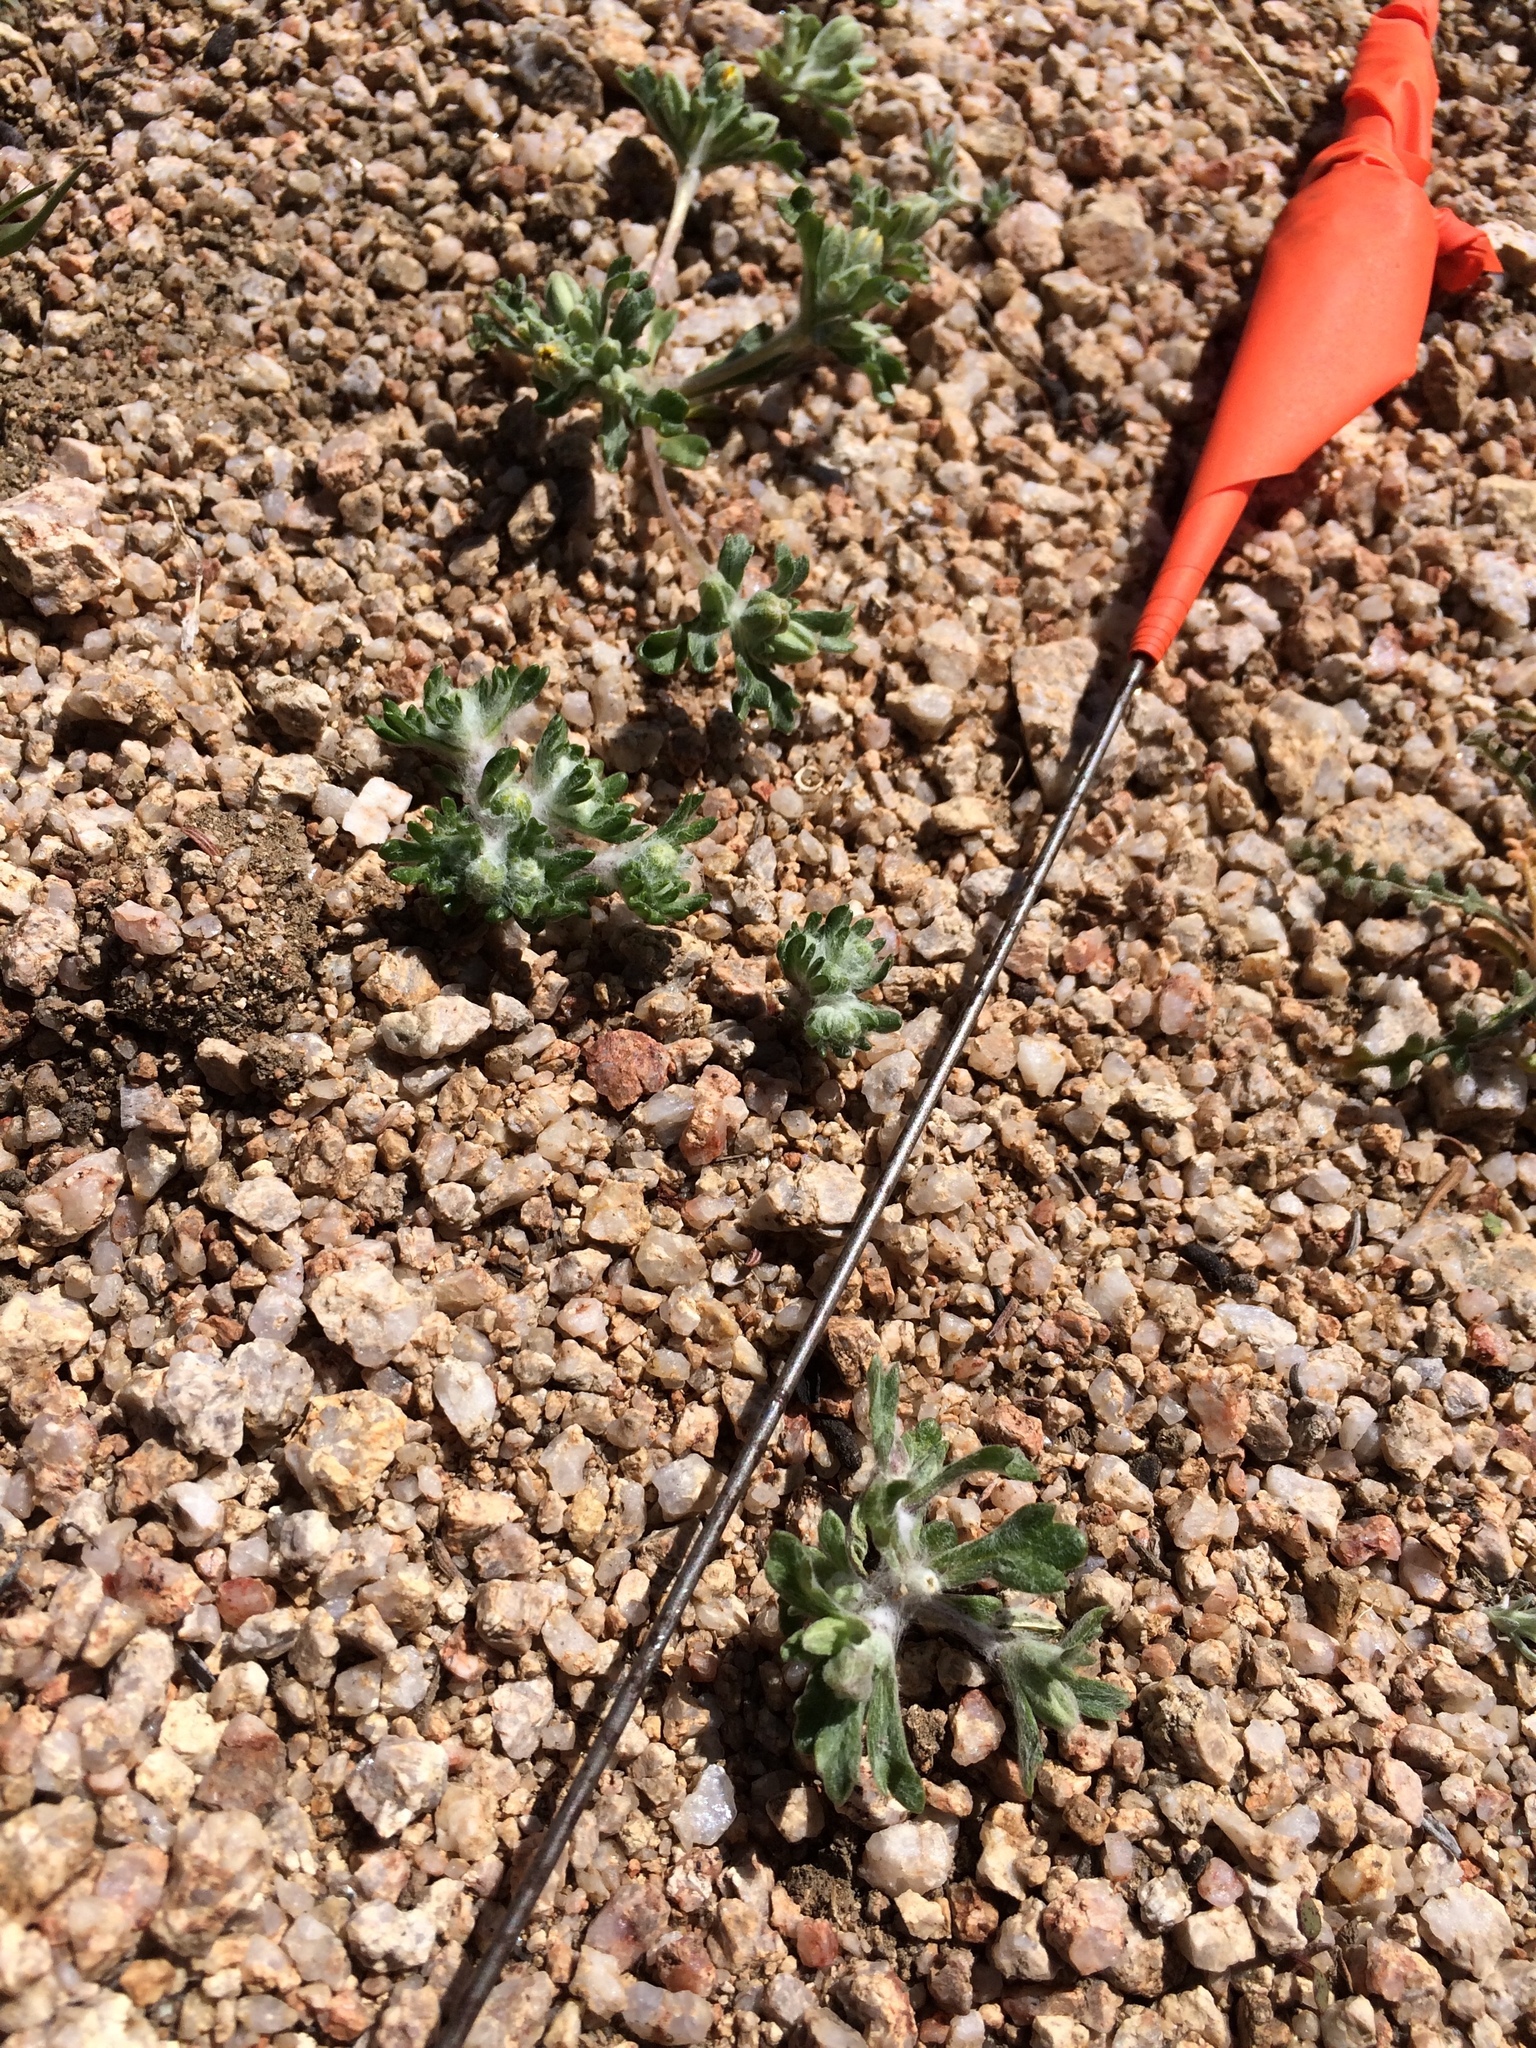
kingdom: Plantae
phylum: Tracheophyta
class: Magnoliopsida
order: Asterales
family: Asteraceae
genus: Eriophyllum
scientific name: Eriophyllum pringlei
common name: Pringle's woolly-sunflower
